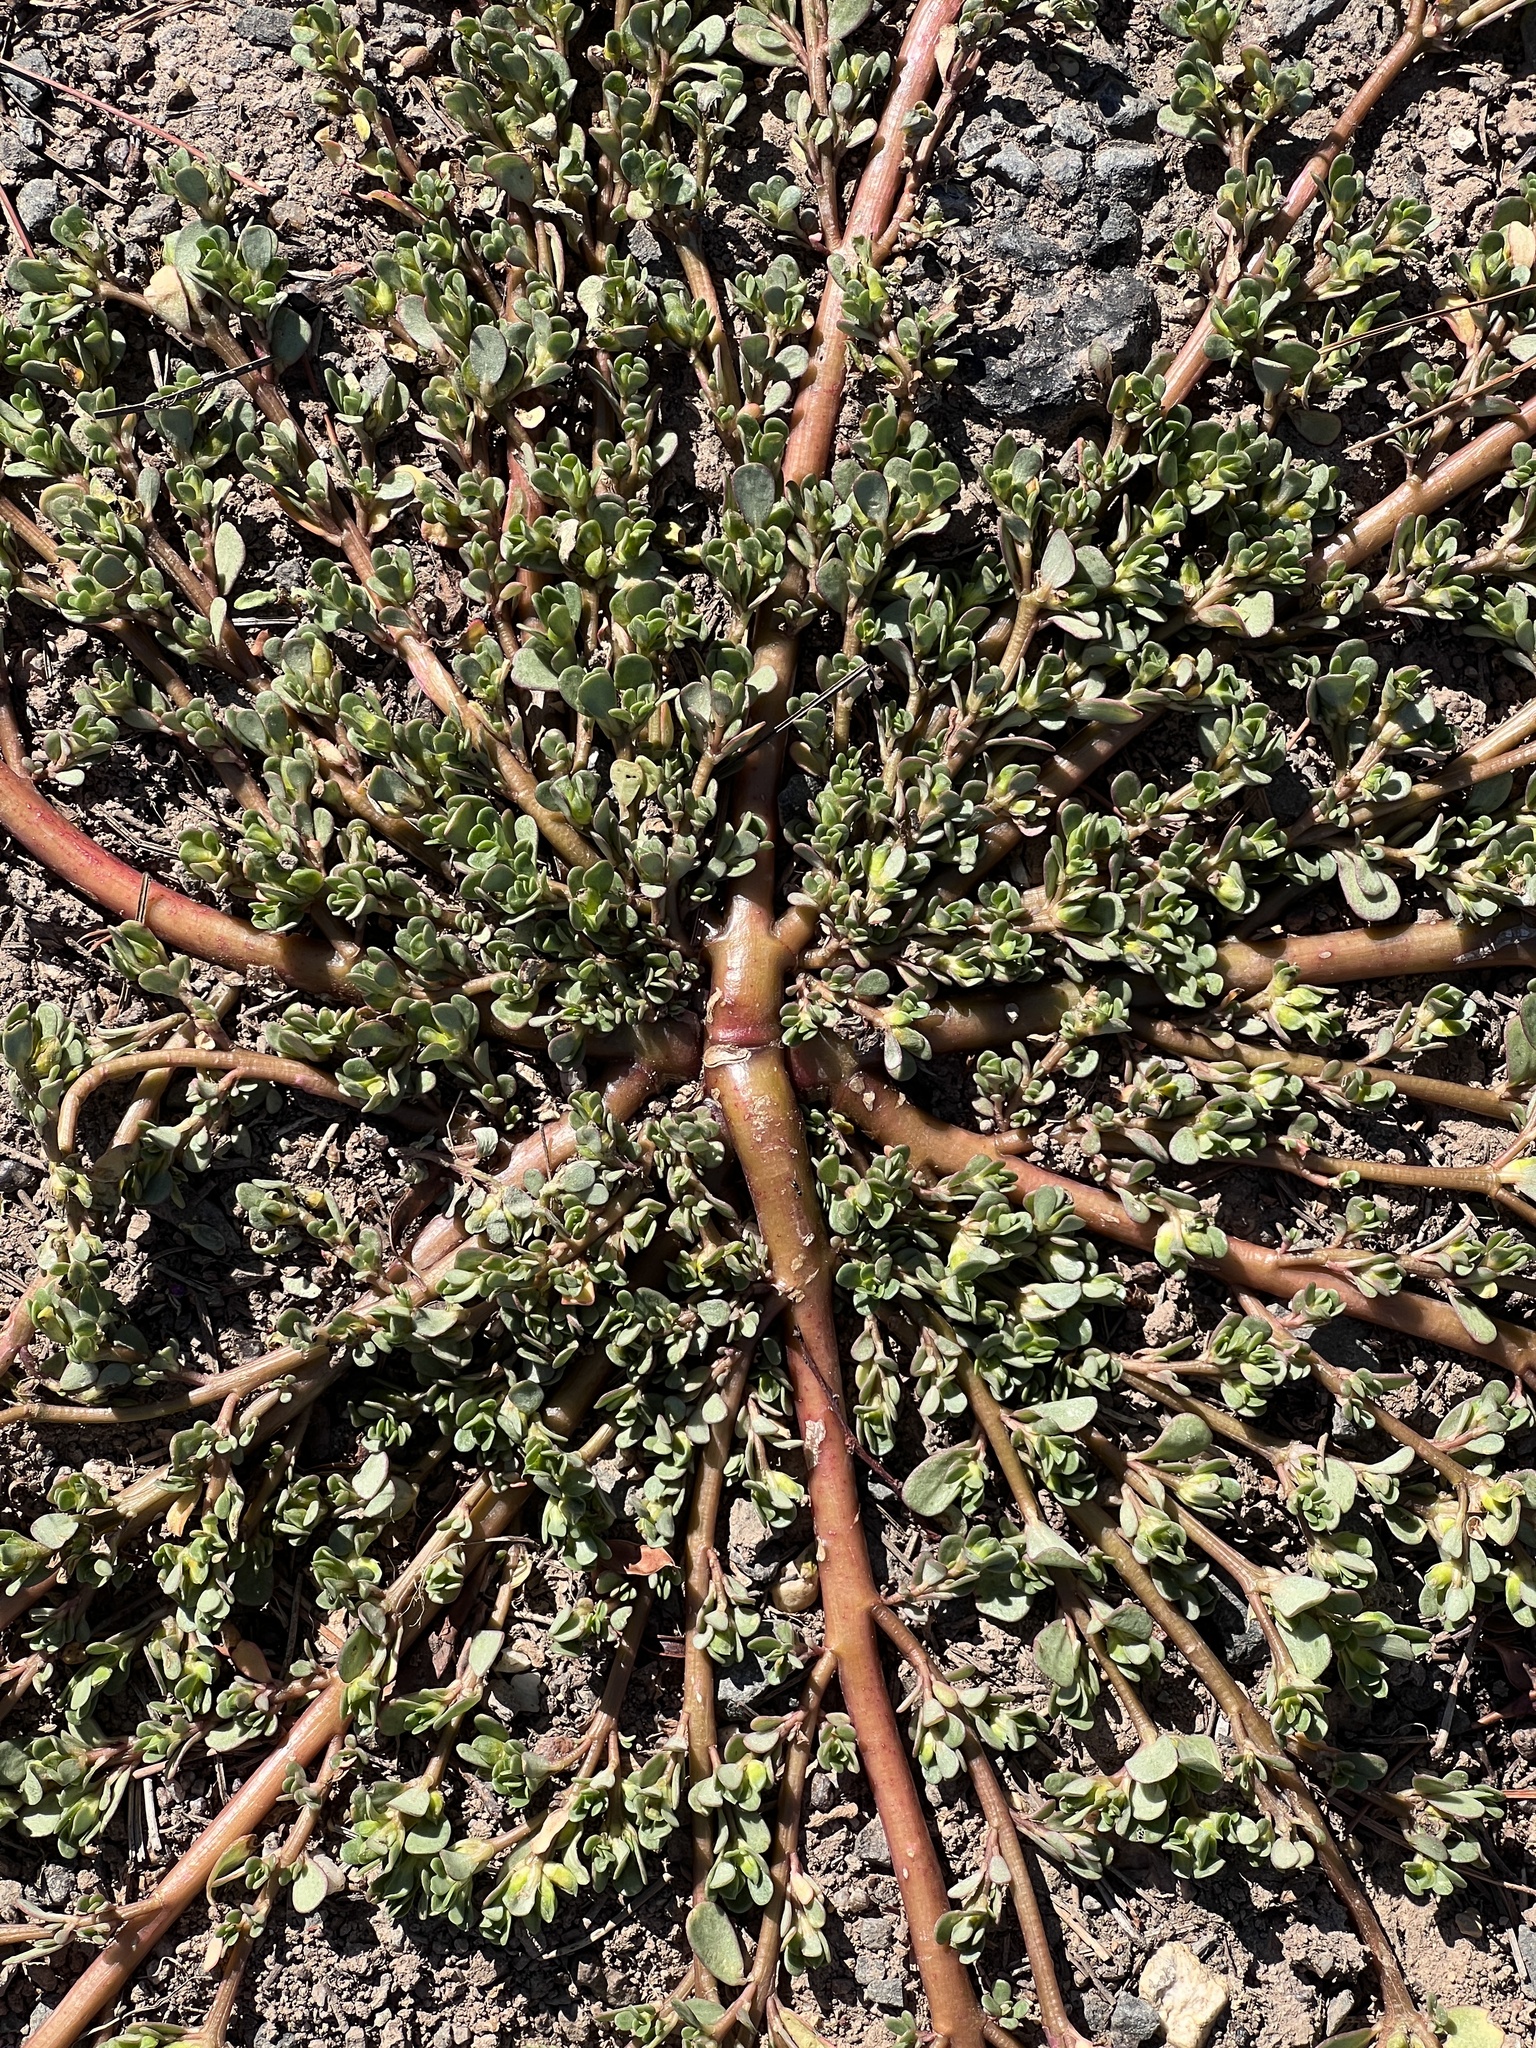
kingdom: Plantae
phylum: Tracheophyta
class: Magnoliopsida
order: Caryophyllales
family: Portulacaceae
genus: Portulaca
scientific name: Portulaca oleracea
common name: Common purslane
